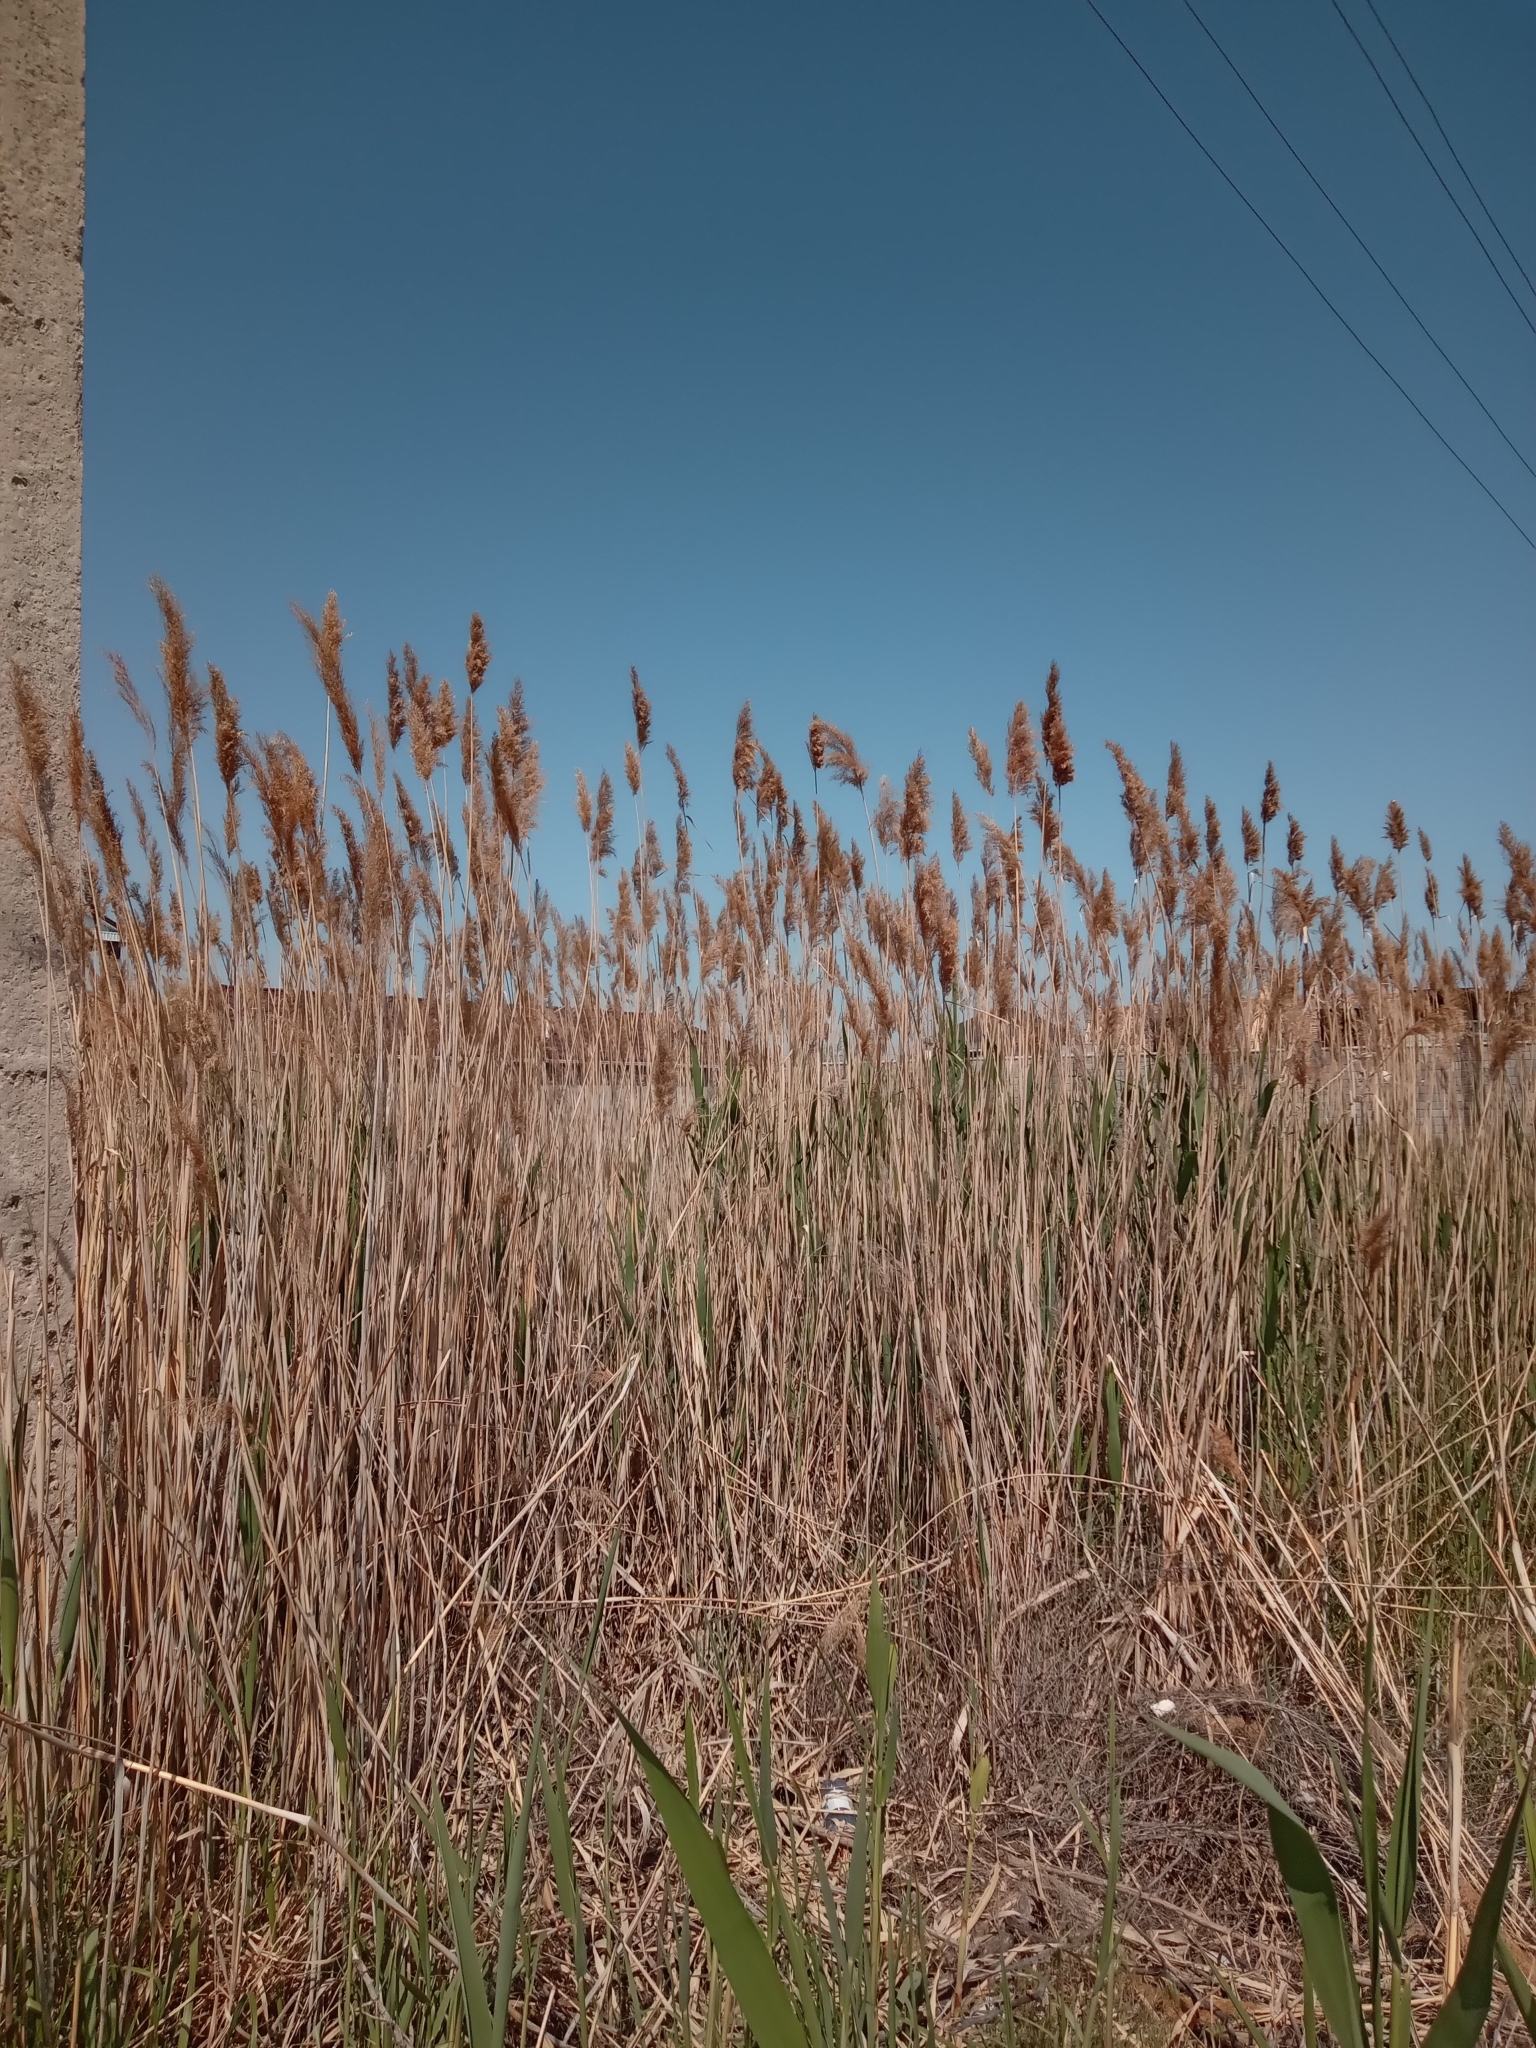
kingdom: Plantae
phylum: Tracheophyta
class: Liliopsida
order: Poales
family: Poaceae
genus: Phragmites
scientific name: Phragmites australis
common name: Common reed
